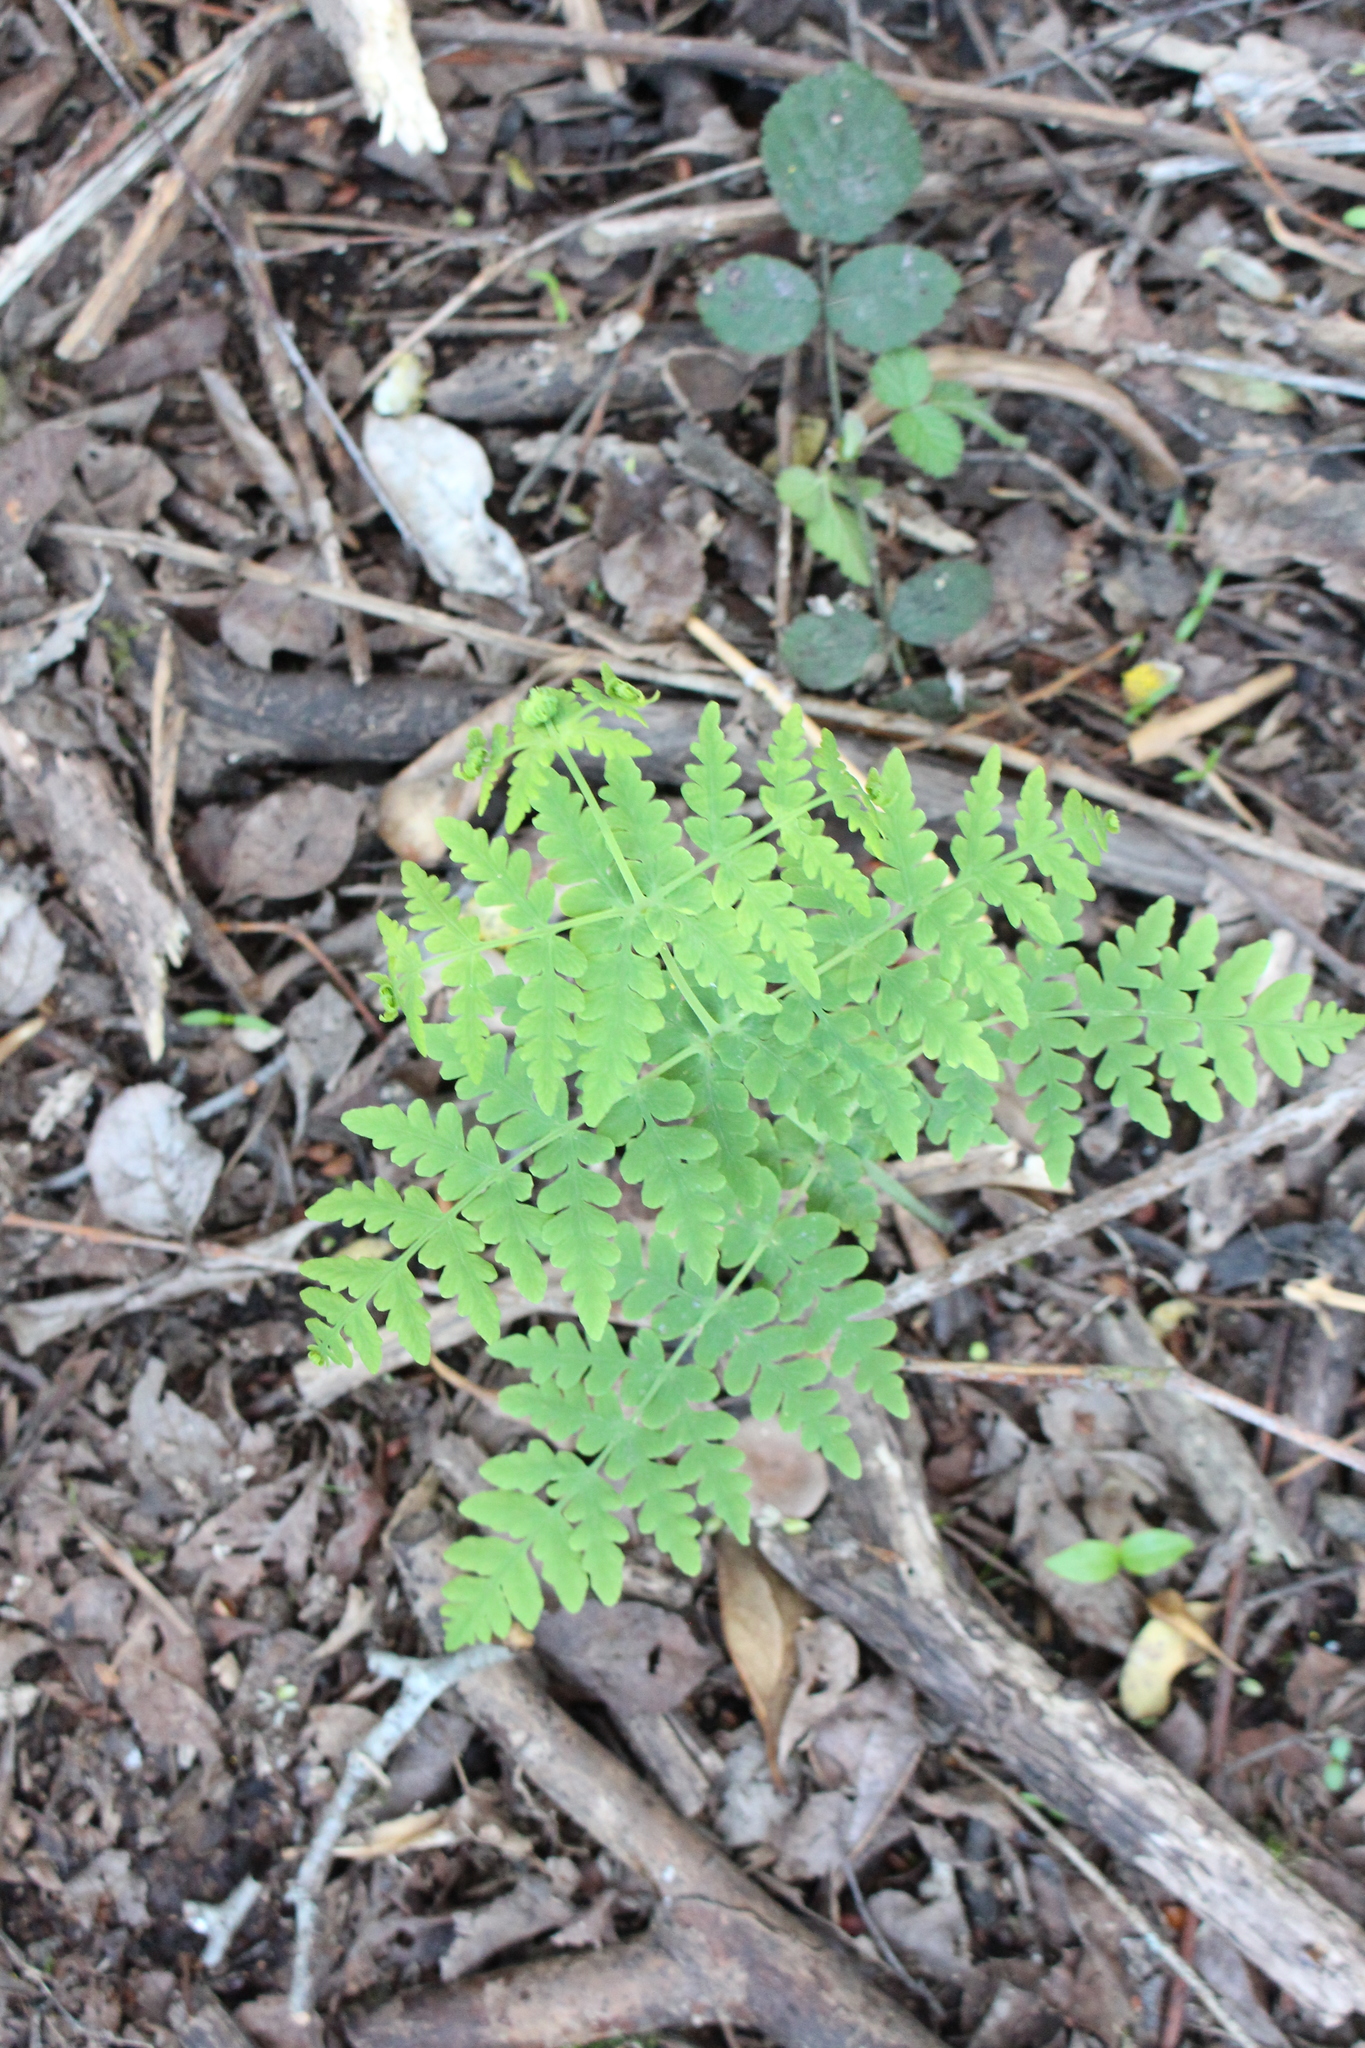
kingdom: Plantae
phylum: Tracheophyta
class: Polypodiopsida
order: Polypodiales
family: Dennstaedtiaceae
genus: Histiopteris
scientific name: Histiopteris incisa
